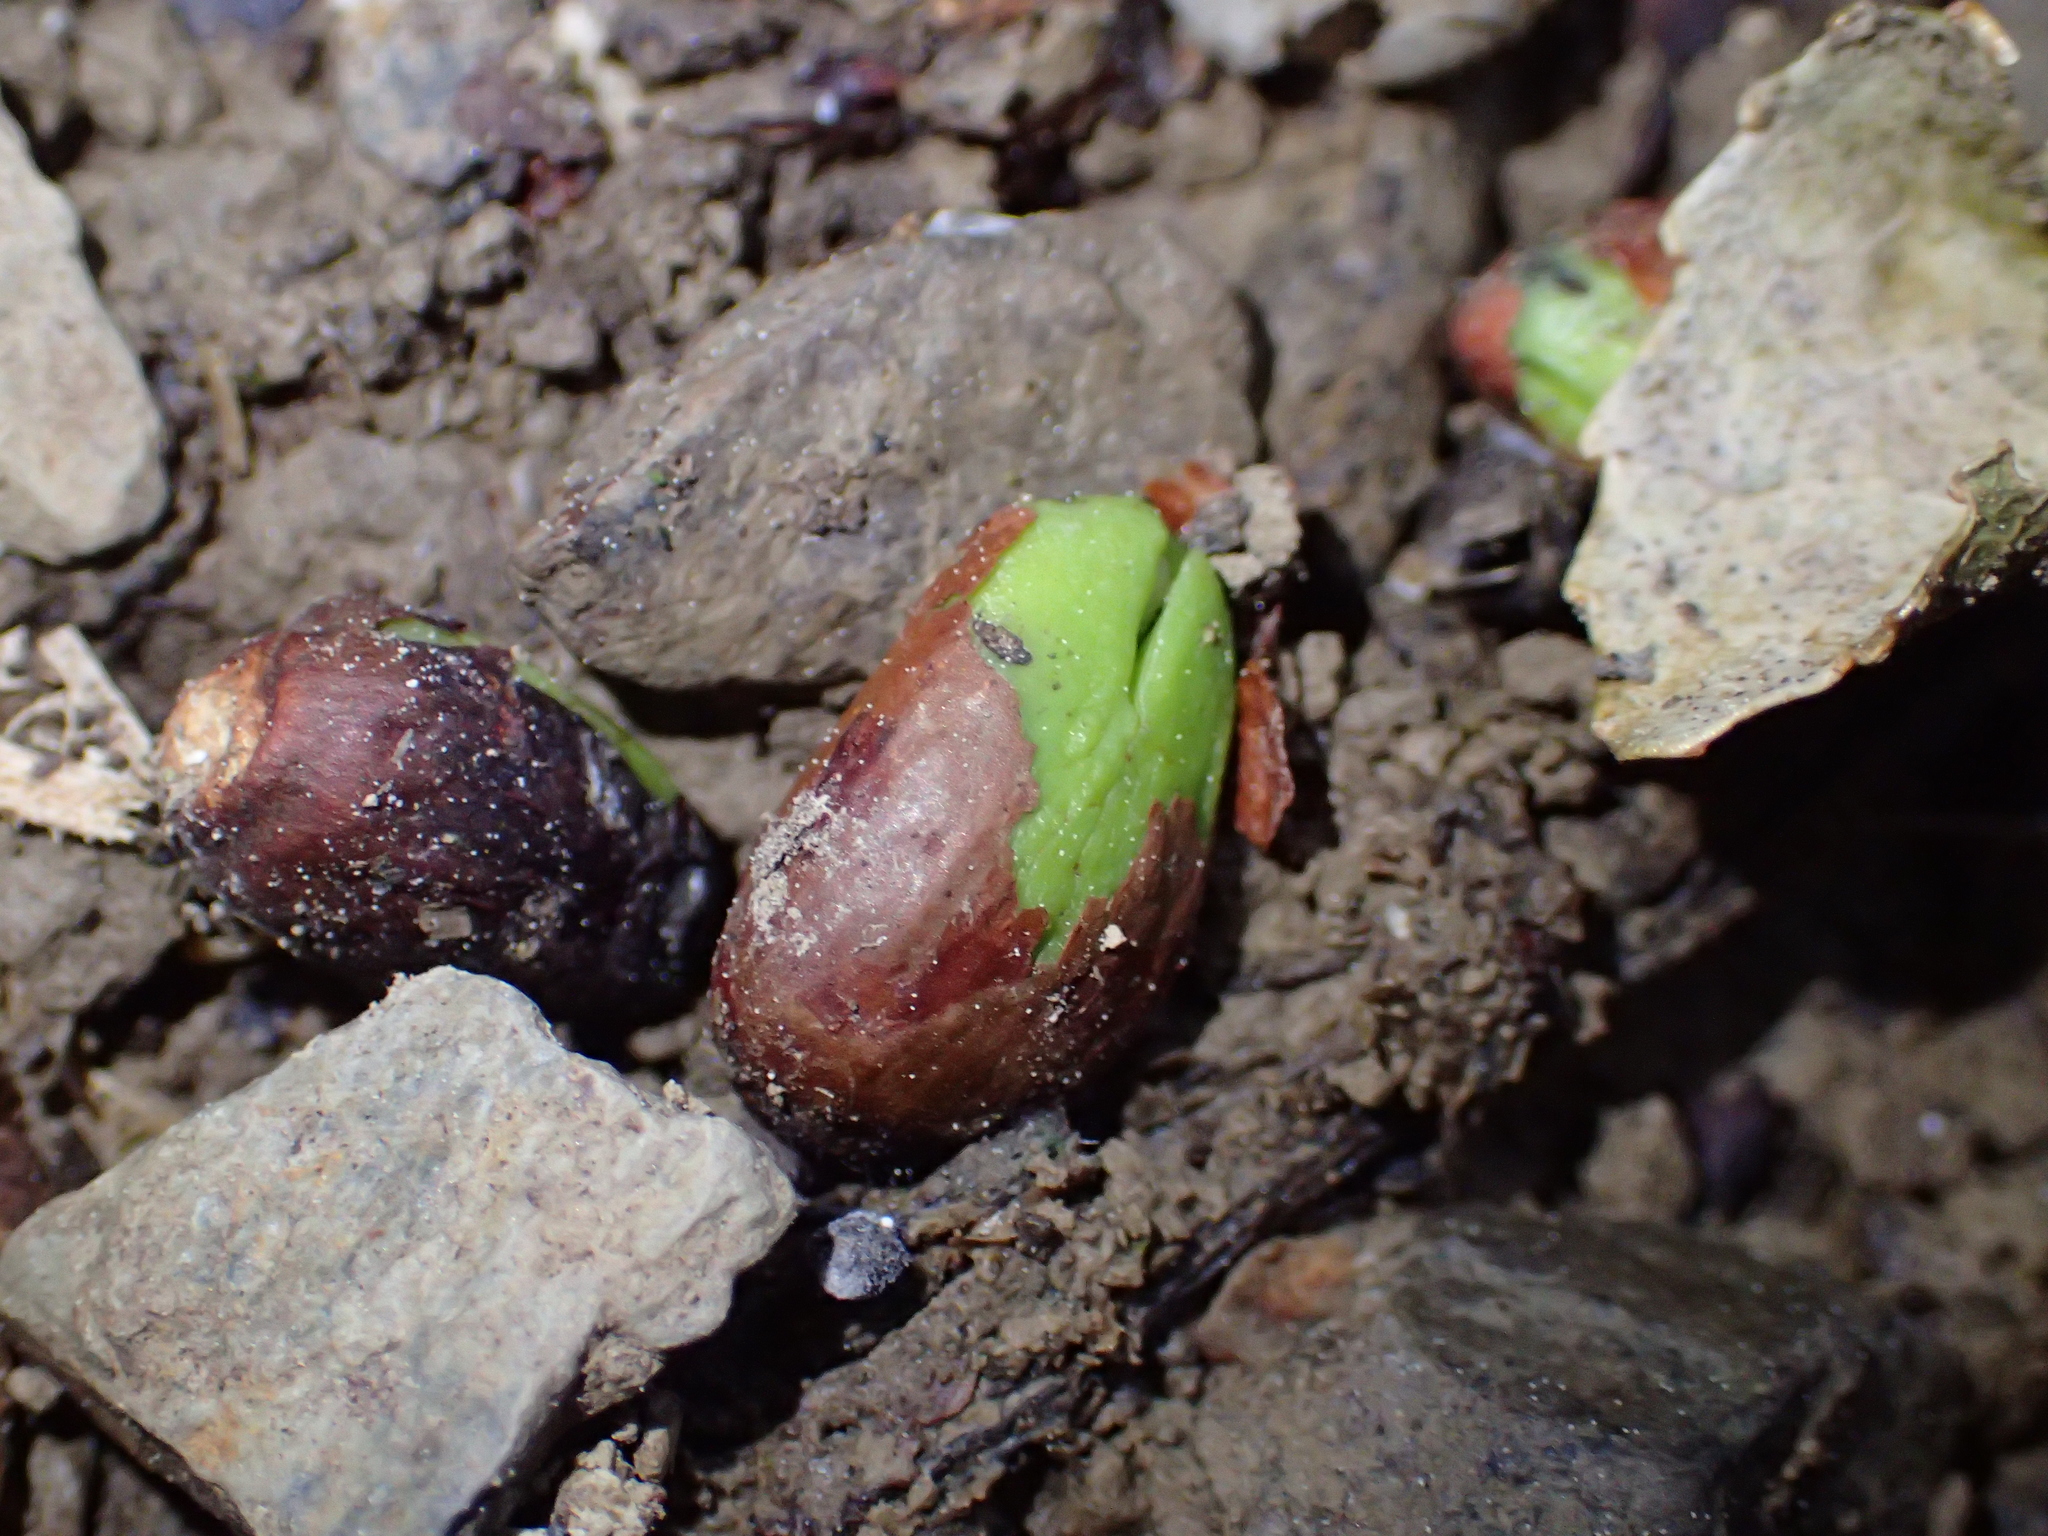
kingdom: Plantae
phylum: Tracheophyta
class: Magnoliopsida
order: Sapindales
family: Meliaceae
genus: Didymocheton
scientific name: Didymocheton spectabilis
